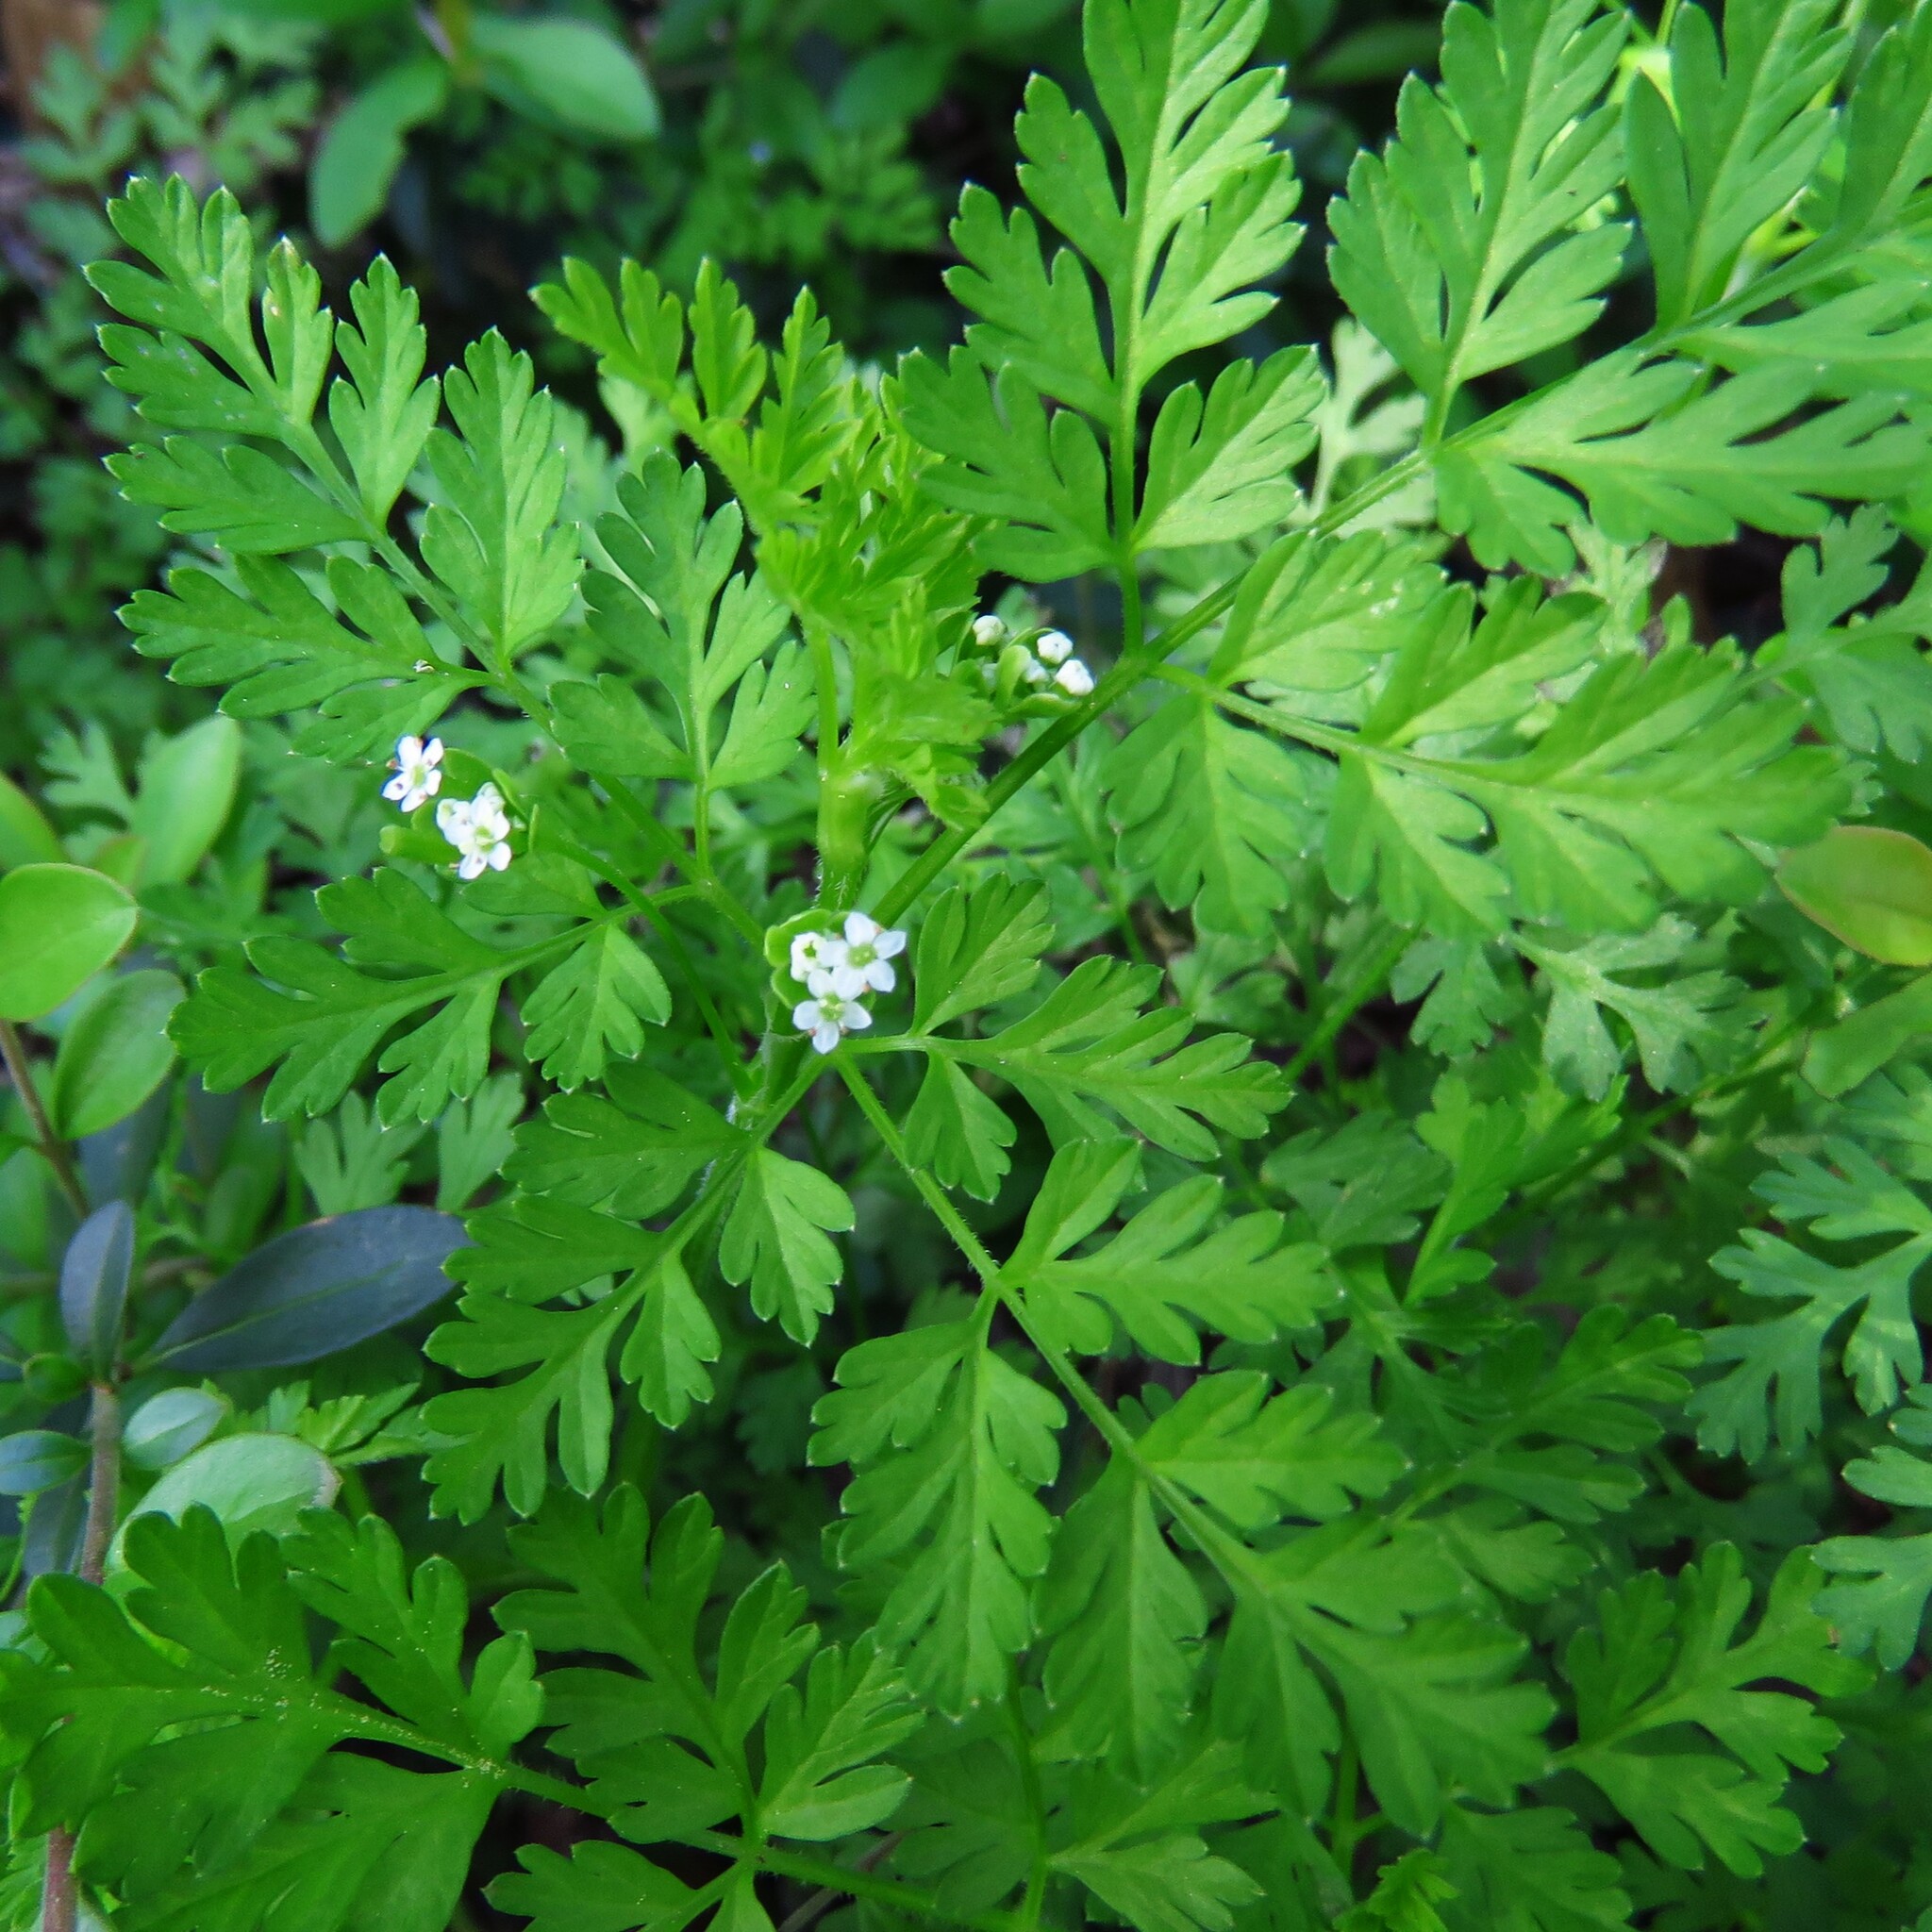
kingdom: Plantae
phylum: Tracheophyta
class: Magnoliopsida
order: Apiales
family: Apiaceae
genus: Chaerophyllum
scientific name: Chaerophyllum tainturieri
